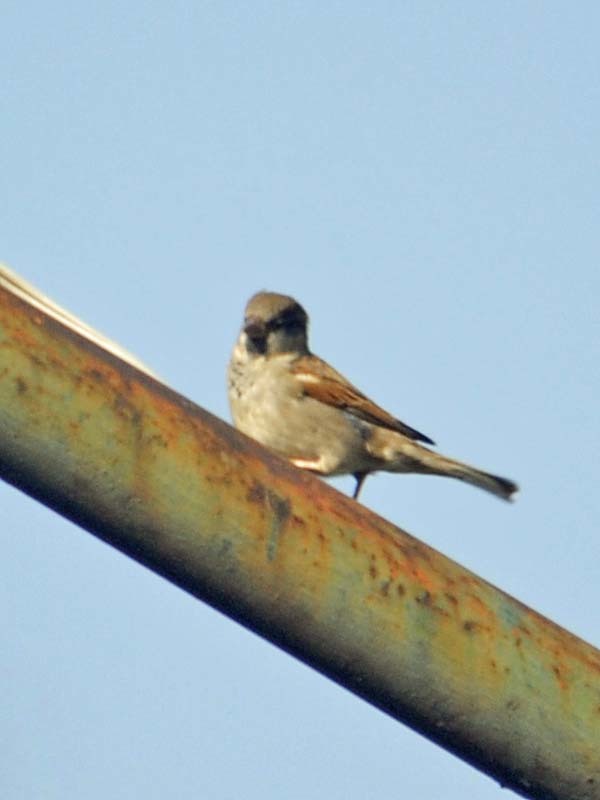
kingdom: Animalia
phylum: Chordata
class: Aves
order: Passeriformes
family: Passeridae
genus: Passer
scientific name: Passer domesticus
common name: House sparrow
